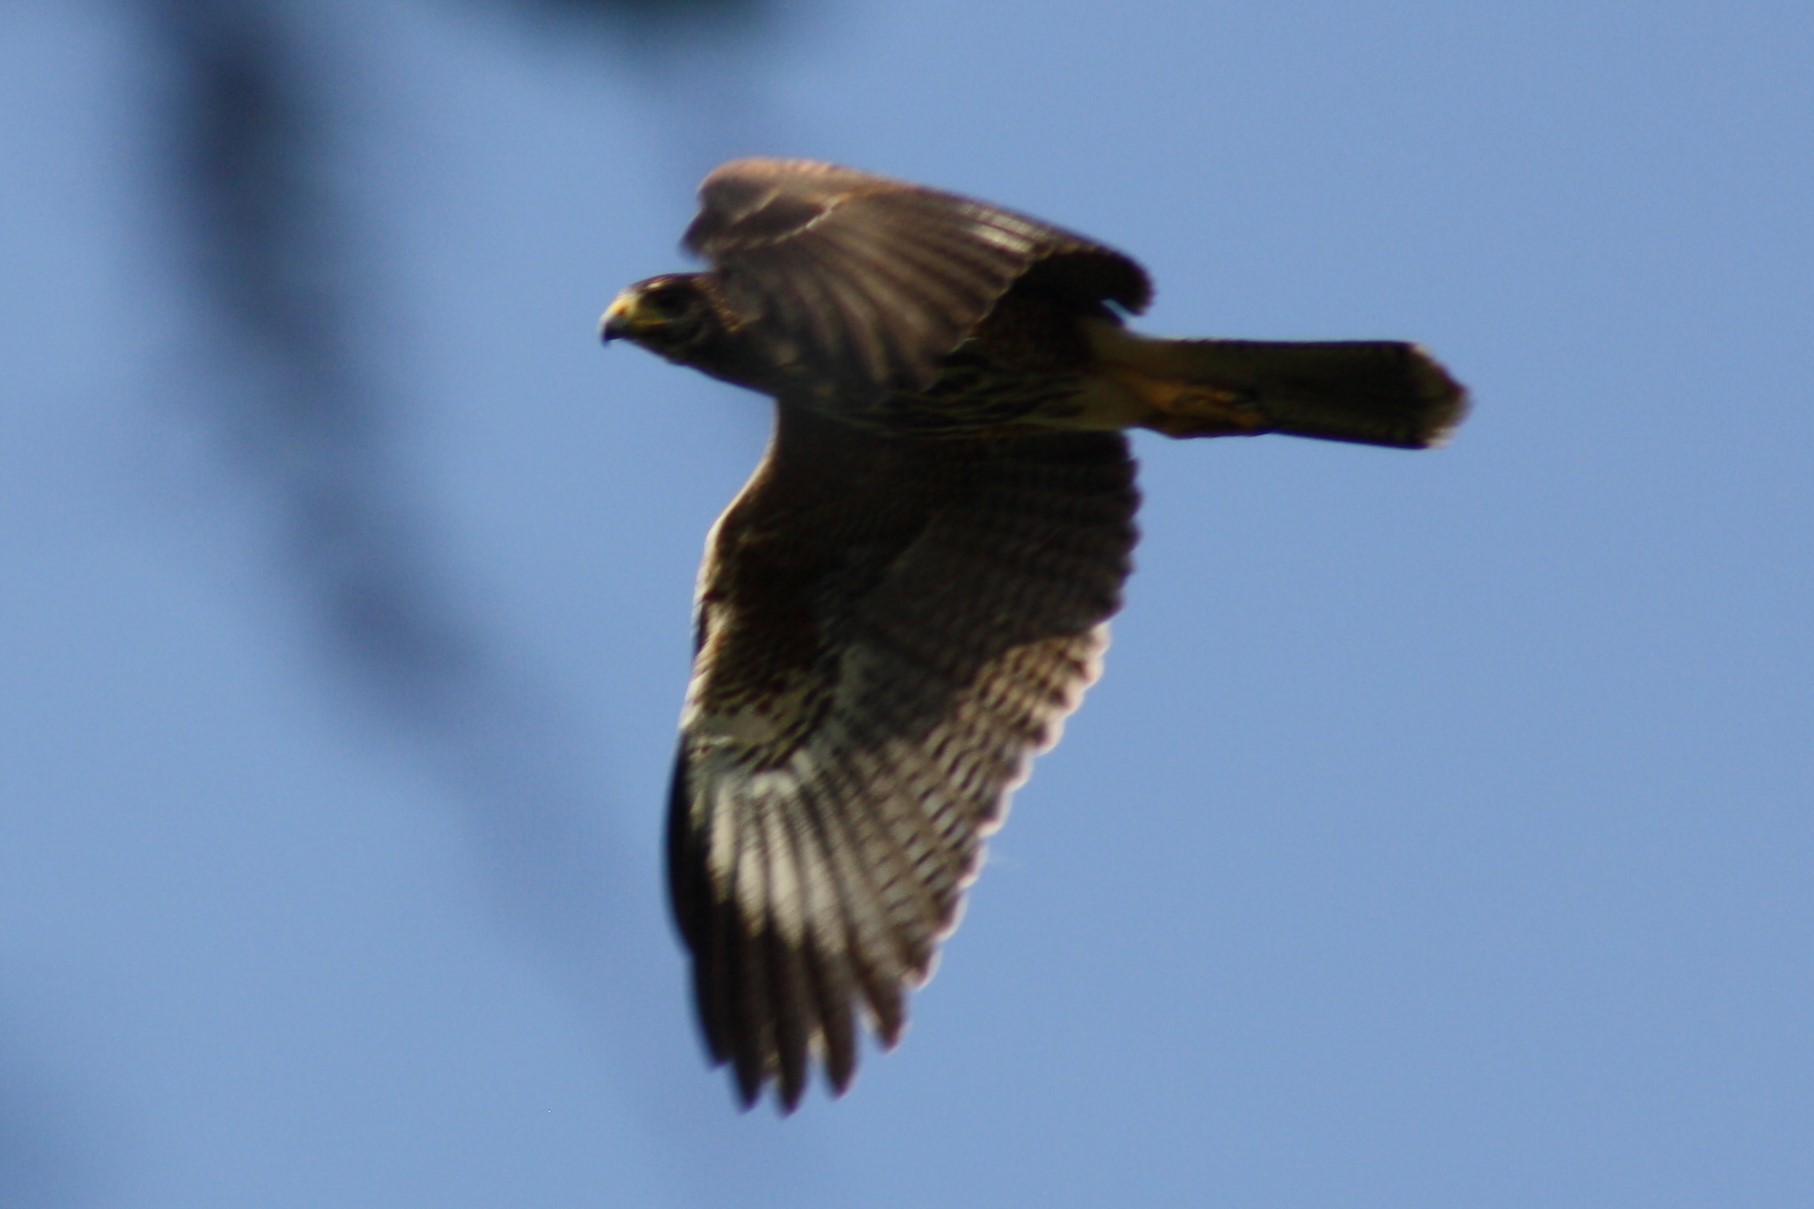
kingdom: Animalia
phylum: Chordata
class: Aves
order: Accipitriformes
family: Accipitridae
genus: Parabuteo
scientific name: Parabuteo unicinctus
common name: Harris's hawk
